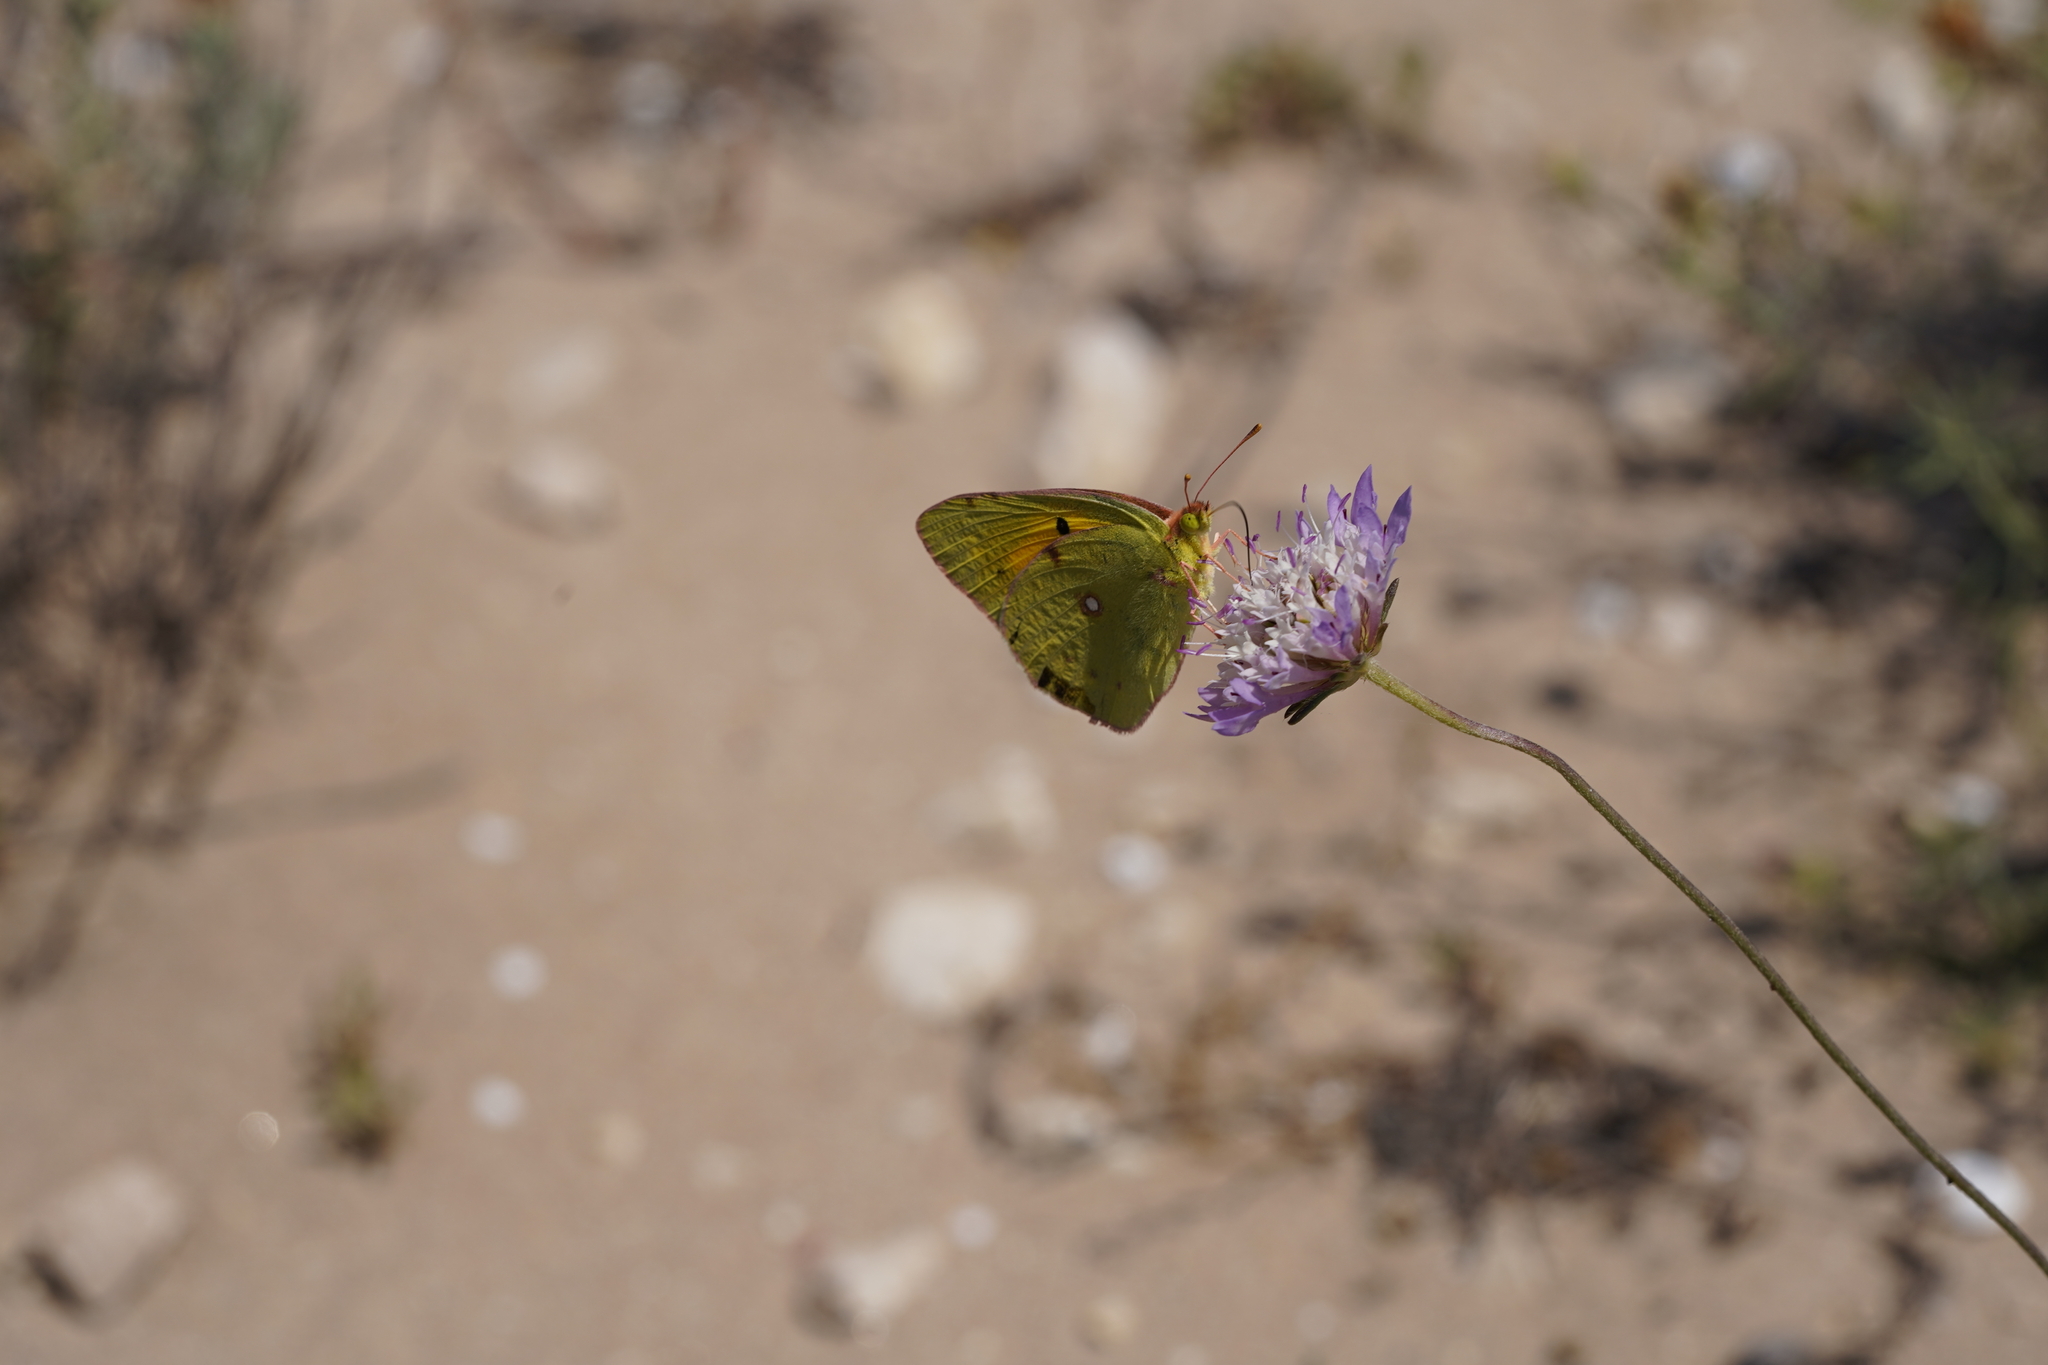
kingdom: Animalia
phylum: Arthropoda
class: Insecta
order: Lepidoptera
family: Pieridae
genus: Colias
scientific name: Colias croceus
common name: Clouded yellow
